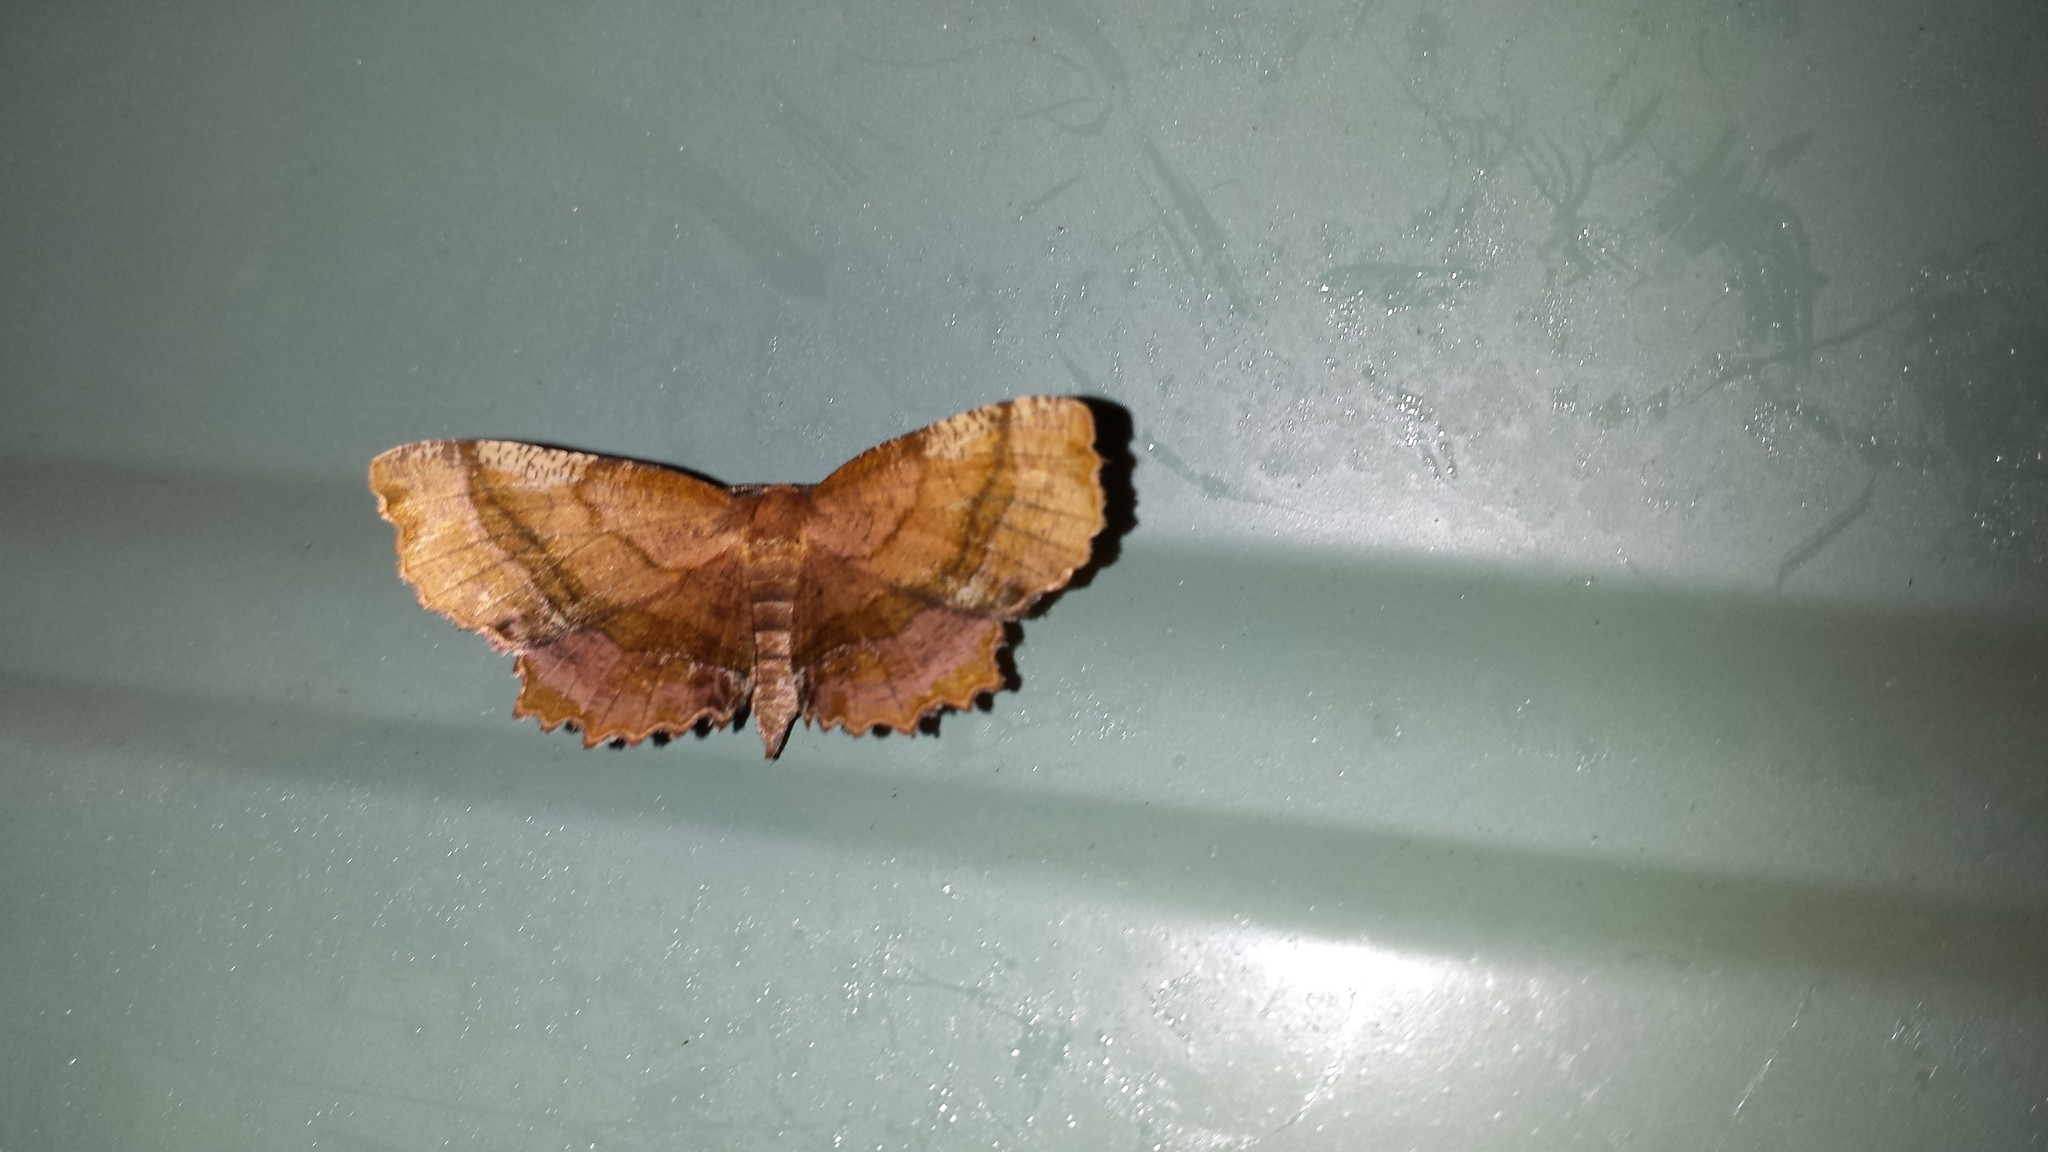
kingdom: Animalia
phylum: Arthropoda
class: Insecta
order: Lepidoptera
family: Geometridae
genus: Cepphis
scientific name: Cepphis armataria
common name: Scallop moth
